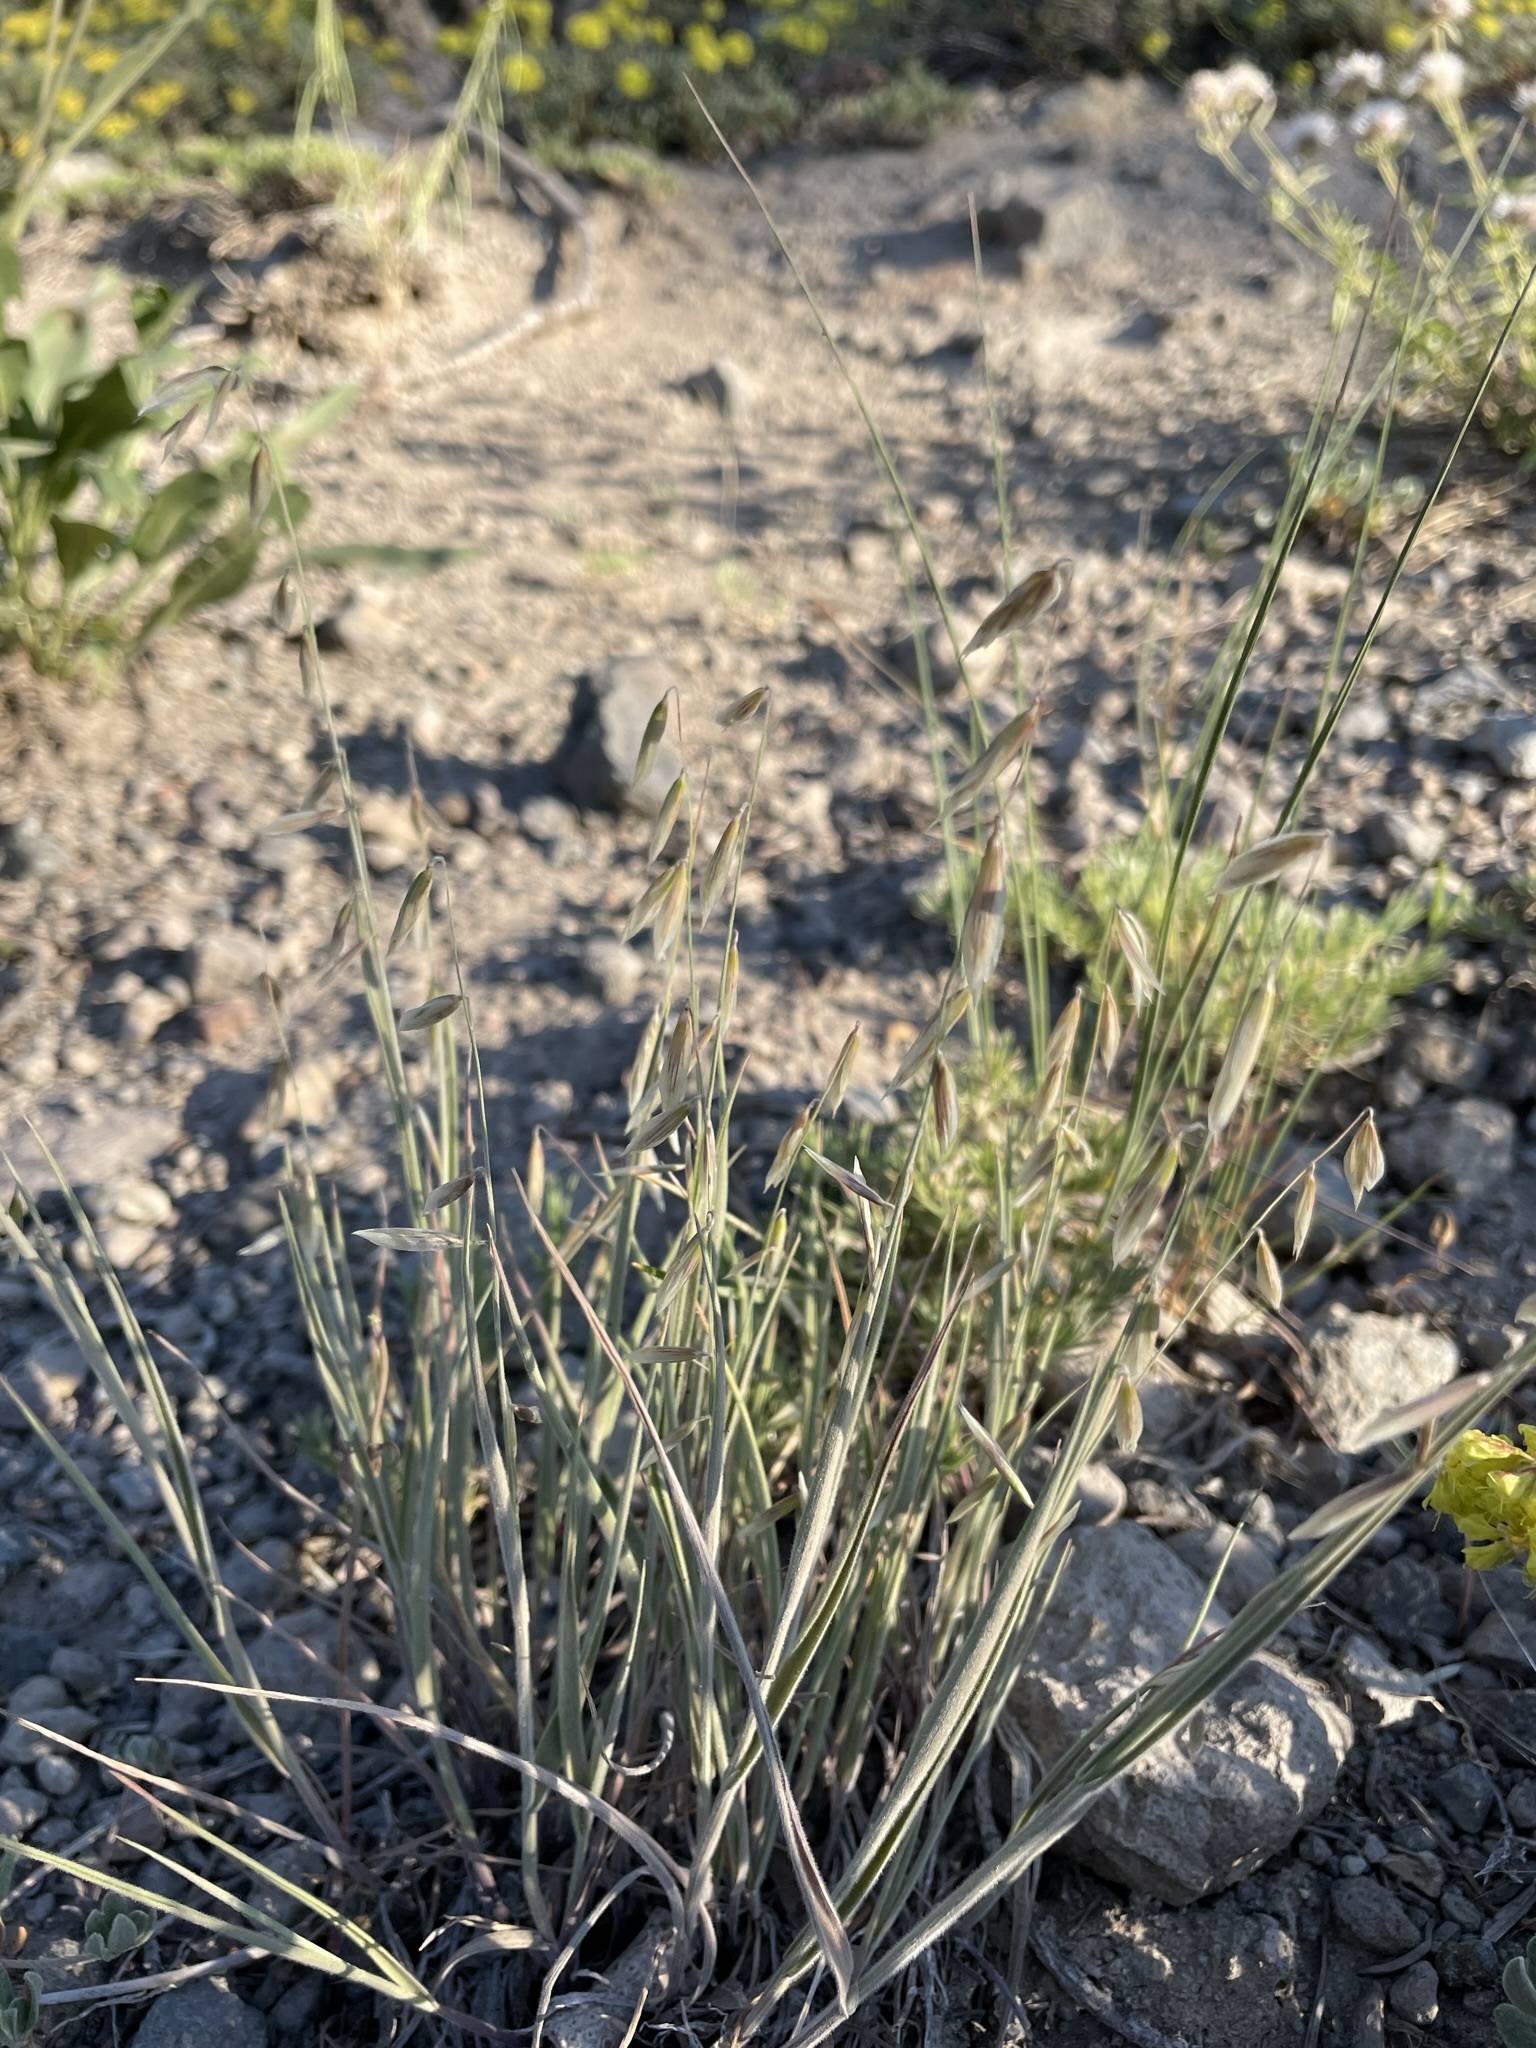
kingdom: Plantae
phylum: Tracheophyta
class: Liliopsida
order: Poales
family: Poaceae
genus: Melica
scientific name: Melica stricta
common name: Rock melic
